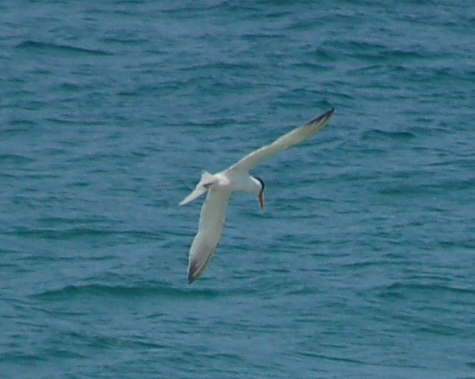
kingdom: Animalia
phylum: Chordata
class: Aves
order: Charadriiformes
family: Laridae
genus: Thalasseus
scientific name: Thalasseus elegans
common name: Elegant tern
